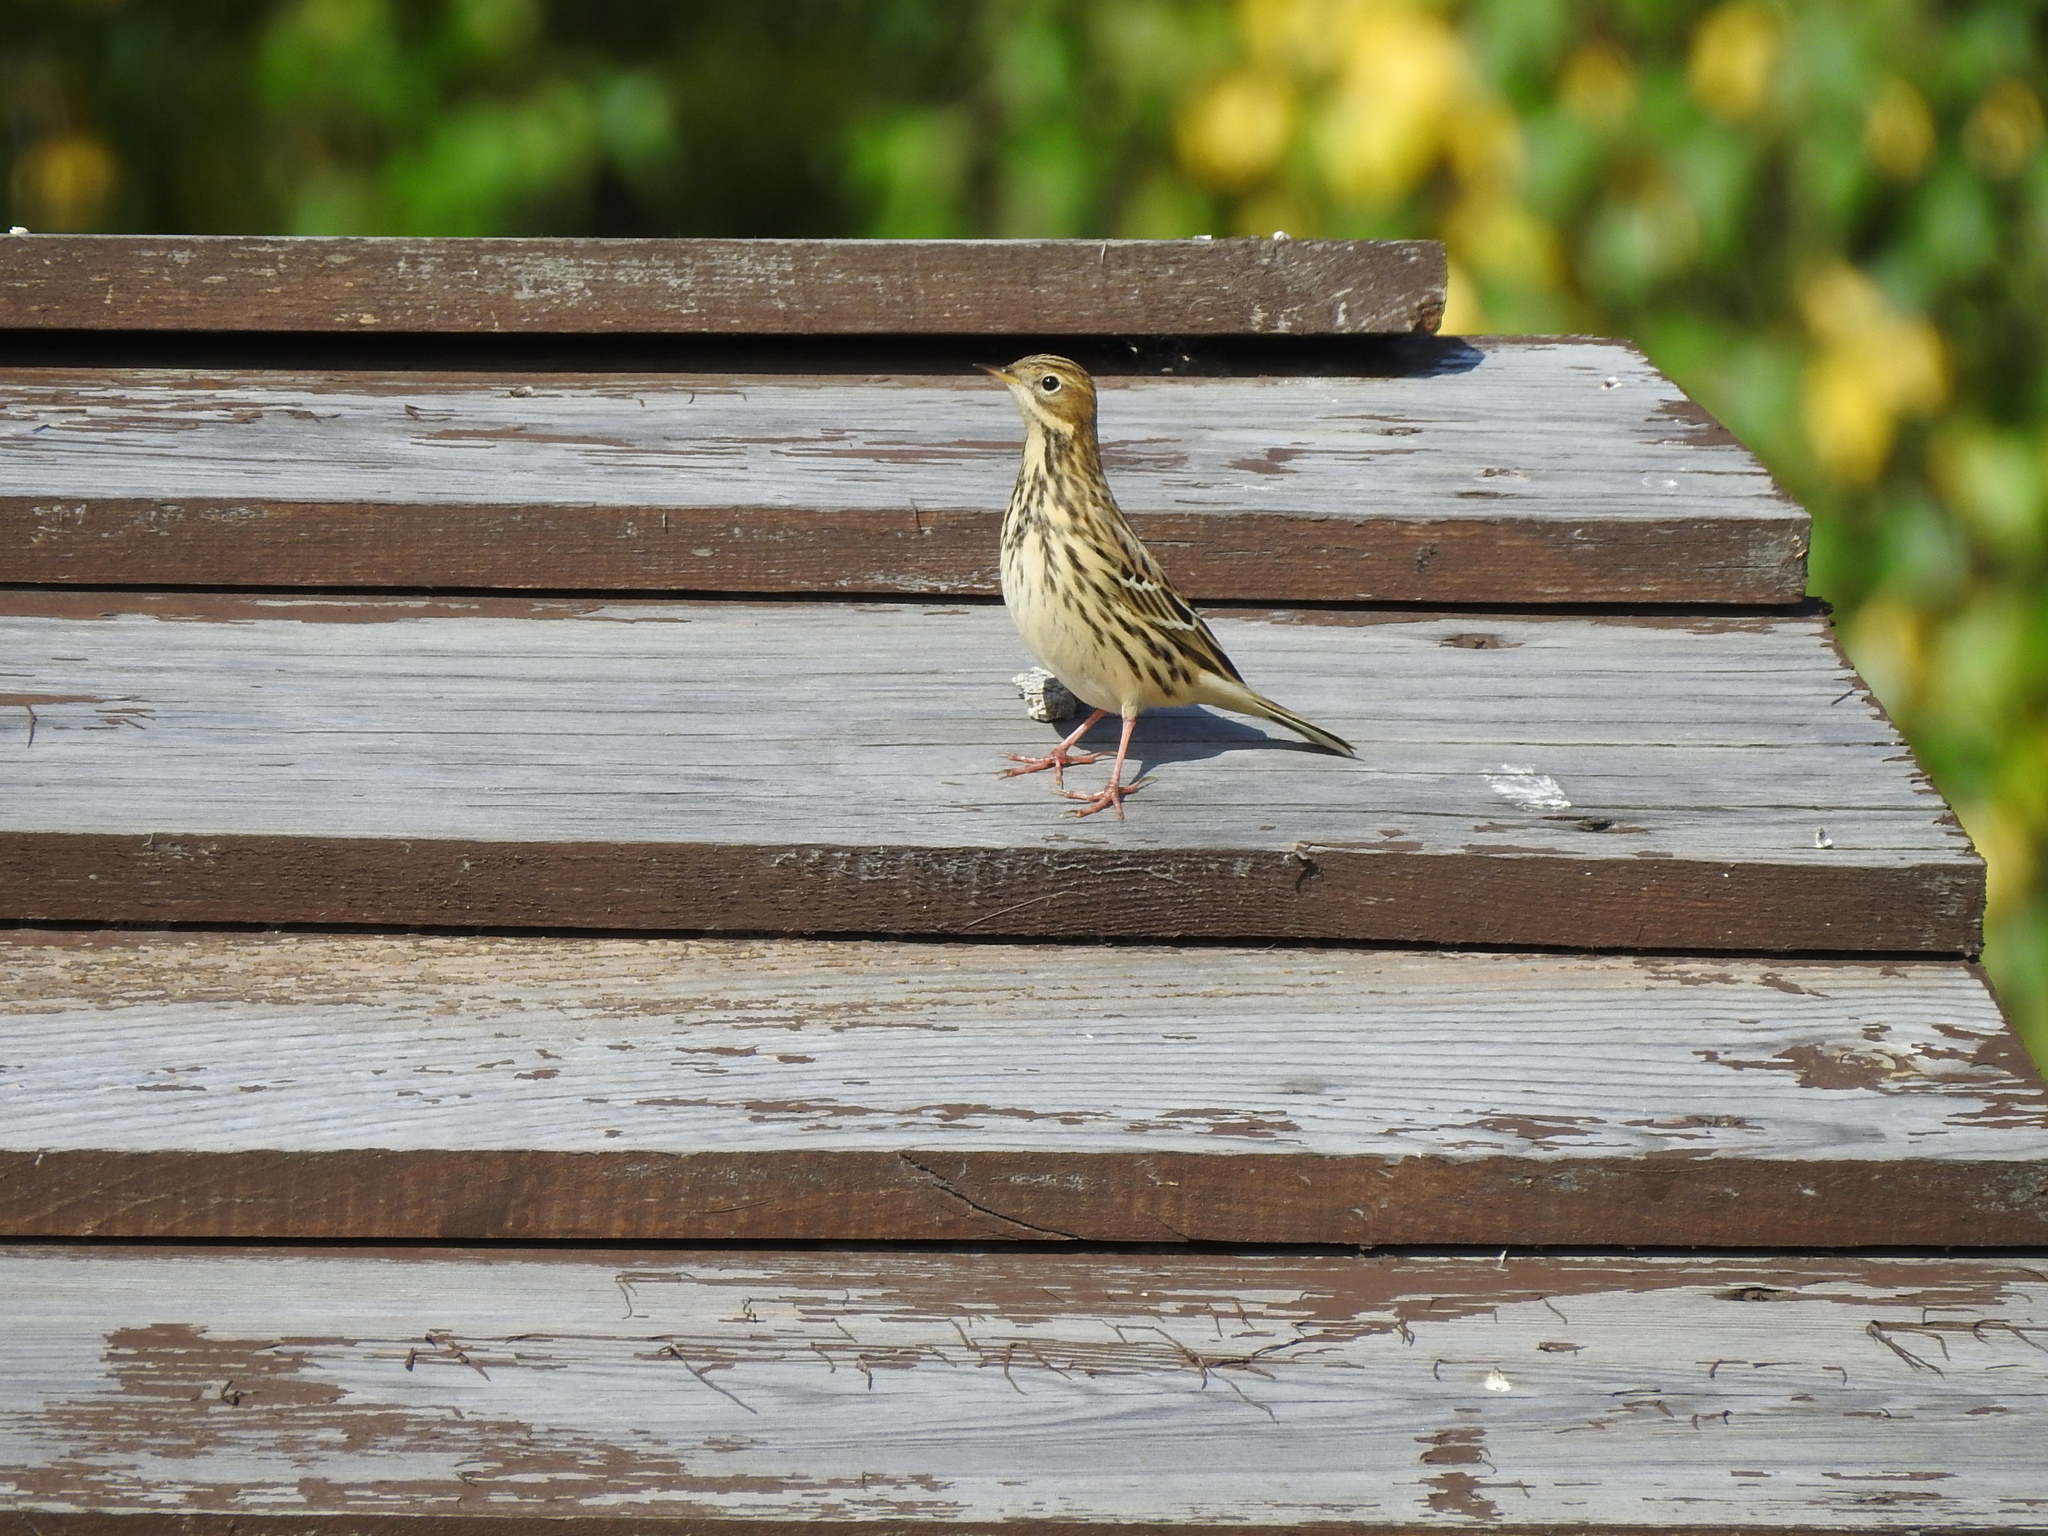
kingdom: Animalia
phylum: Chordata
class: Aves
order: Passeriformes
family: Motacillidae
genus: Anthus
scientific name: Anthus cervinus
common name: Red-throated pipit
